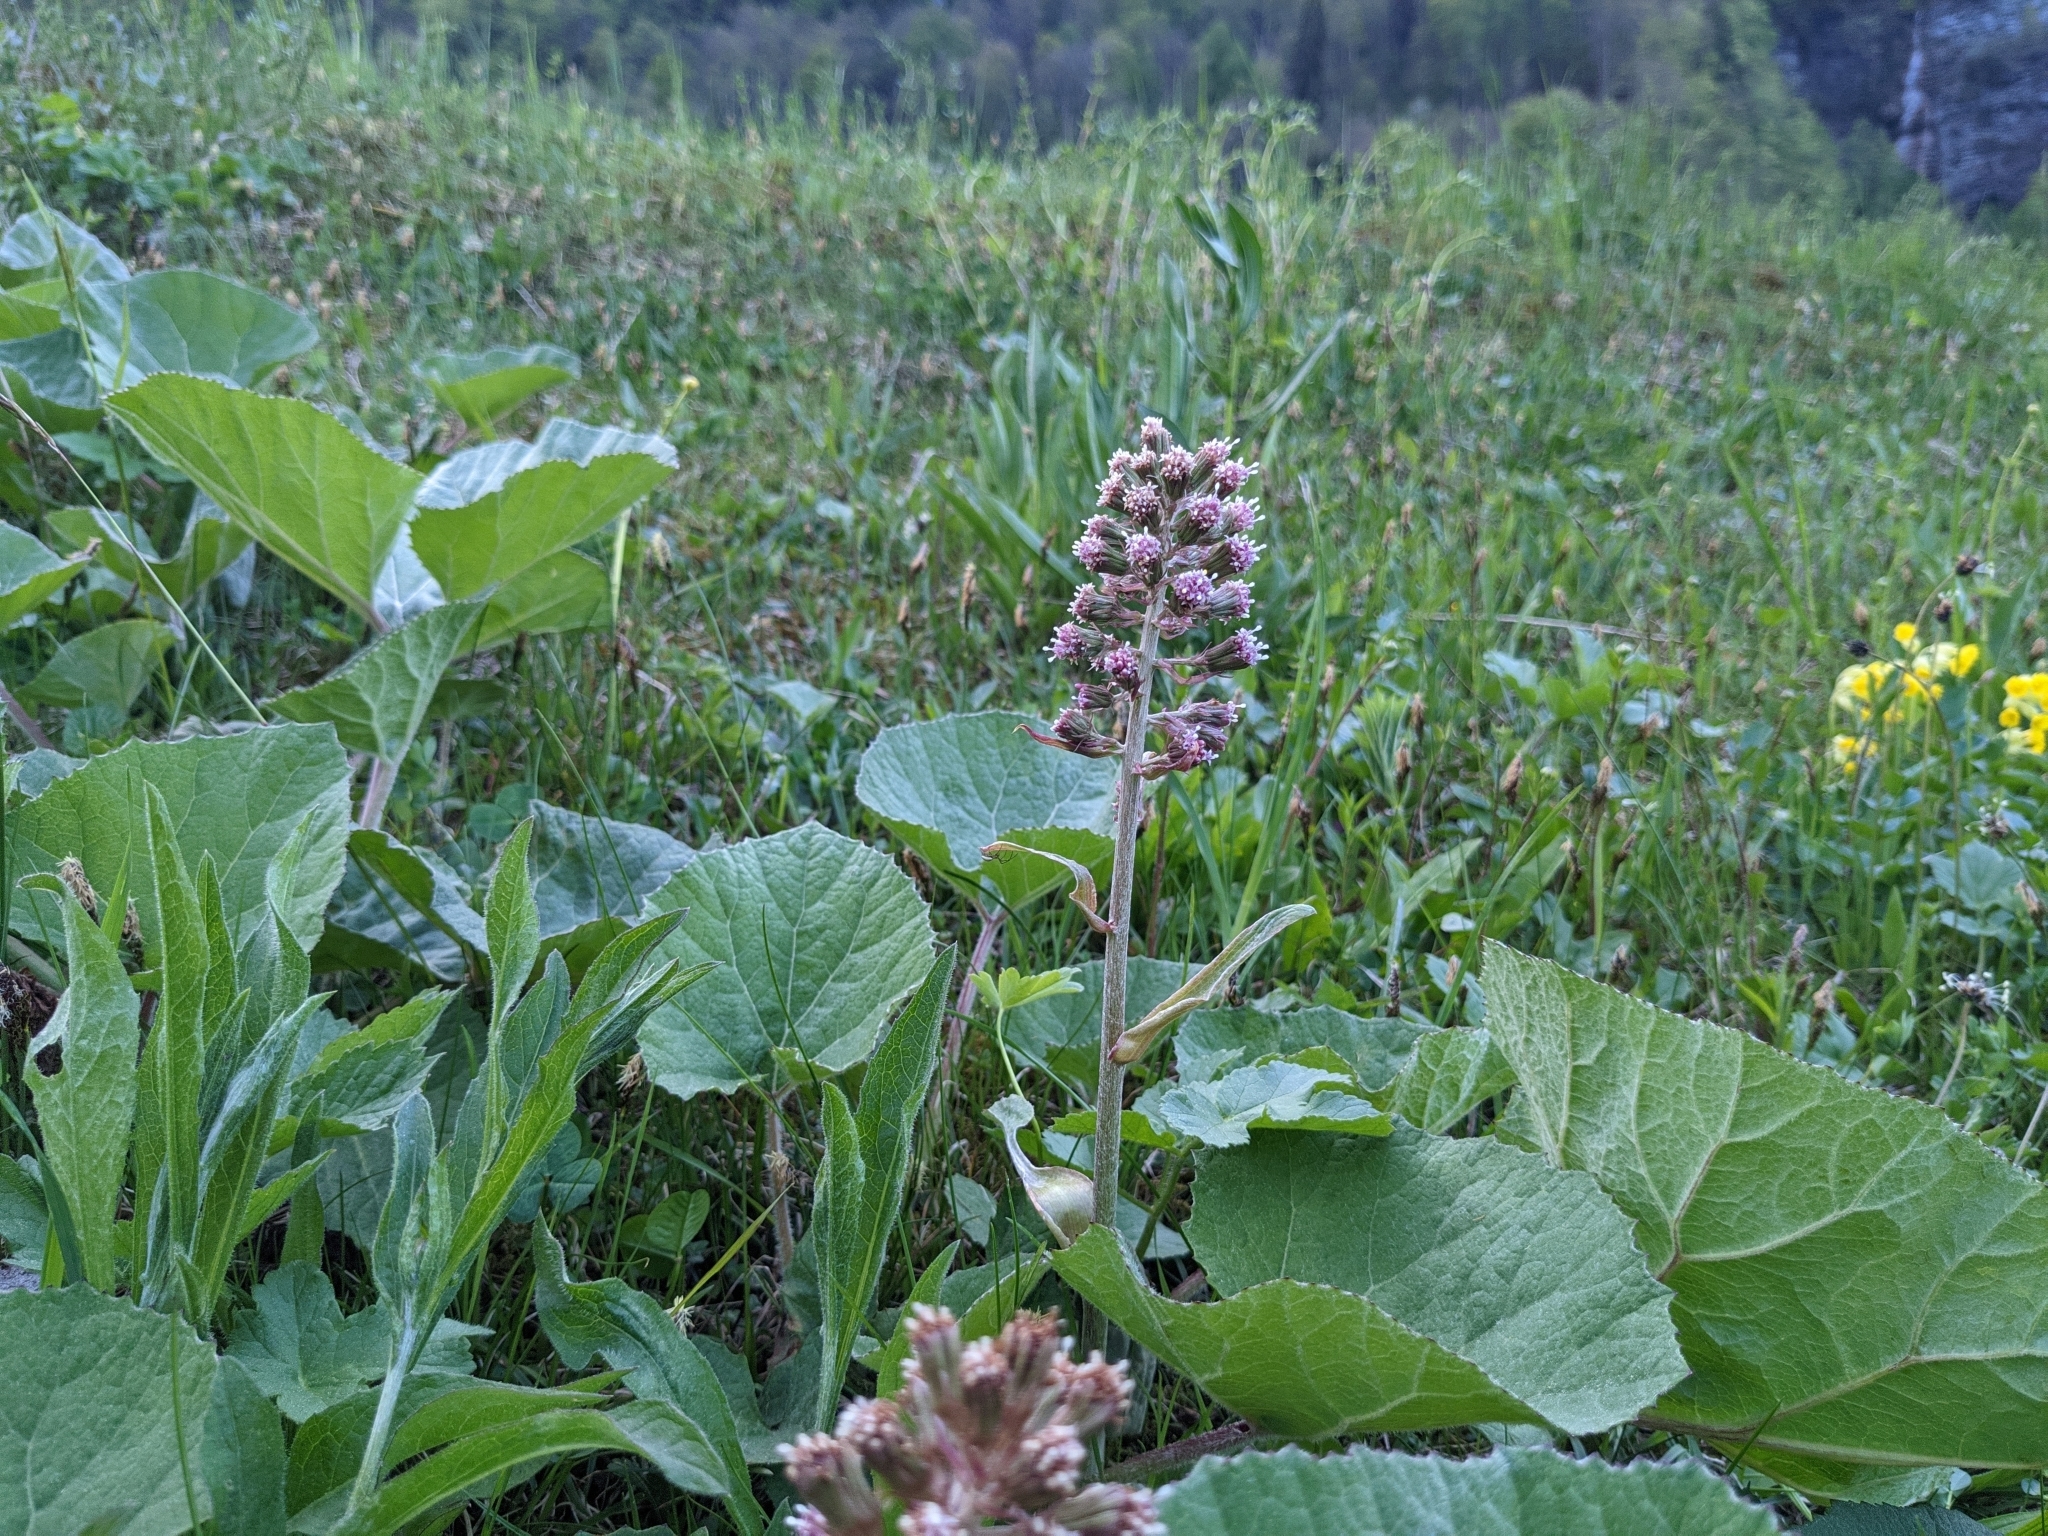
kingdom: Plantae
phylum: Tracheophyta
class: Magnoliopsida
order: Asterales
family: Asteraceae
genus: Petasites
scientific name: Petasites hybridus
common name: Butterbur
